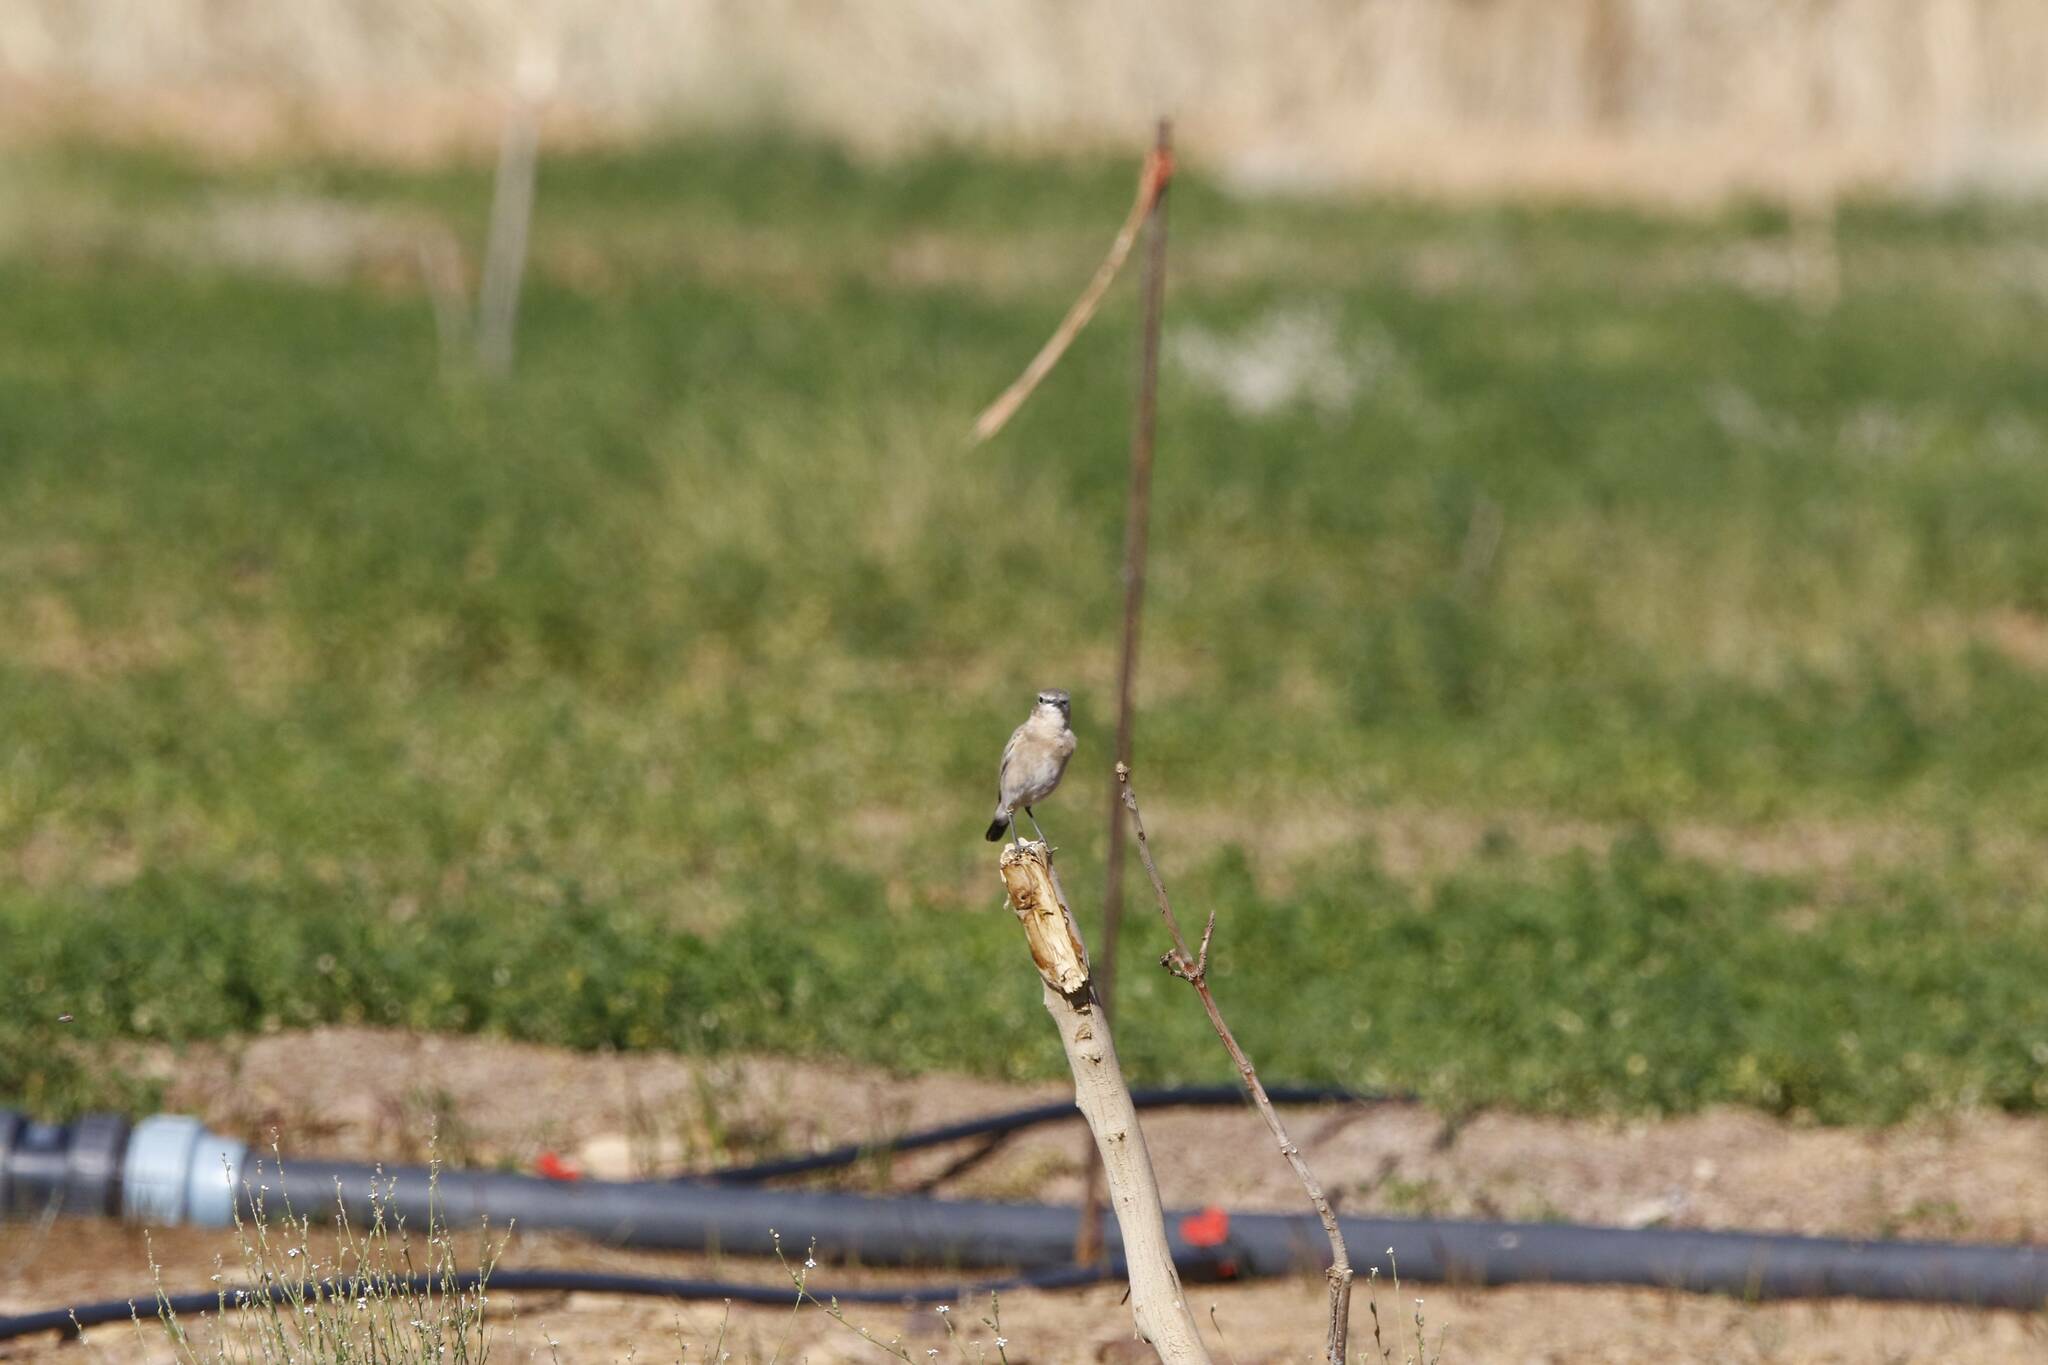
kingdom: Animalia
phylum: Chordata
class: Aves
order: Passeriformes
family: Muscicapidae
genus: Oenanthe
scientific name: Oenanthe isabellina
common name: Isabelline wheatear
